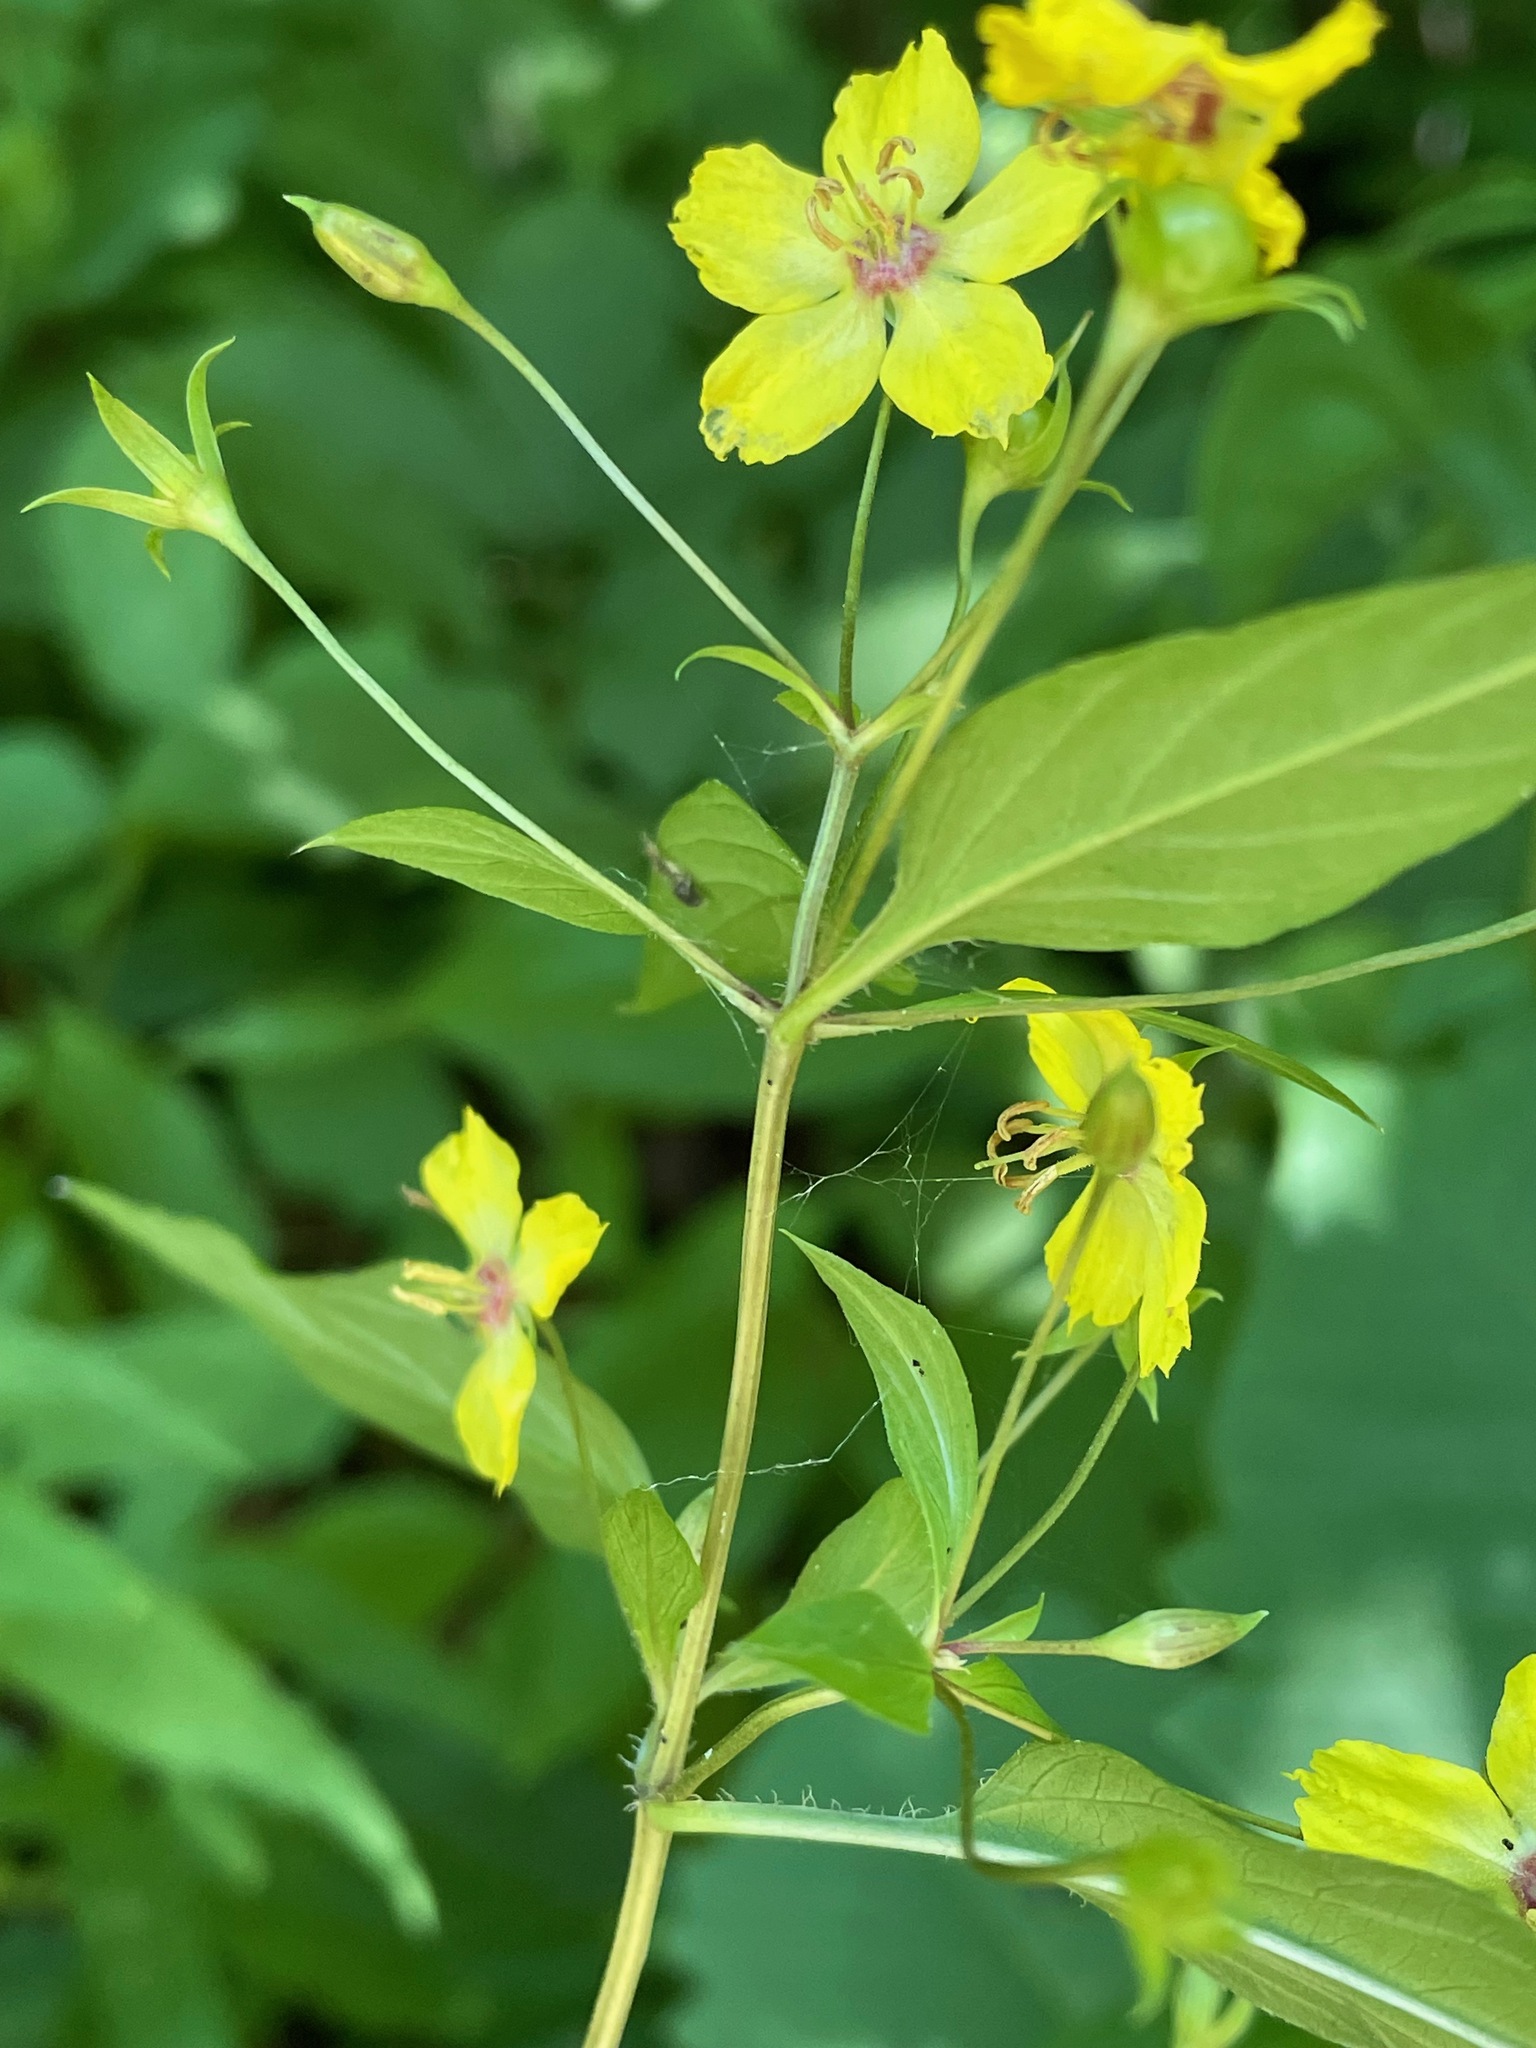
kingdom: Plantae
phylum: Tracheophyta
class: Magnoliopsida
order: Ericales
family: Primulaceae
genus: Lysimachia
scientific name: Lysimachia ciliata
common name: Fringed loosestrife
